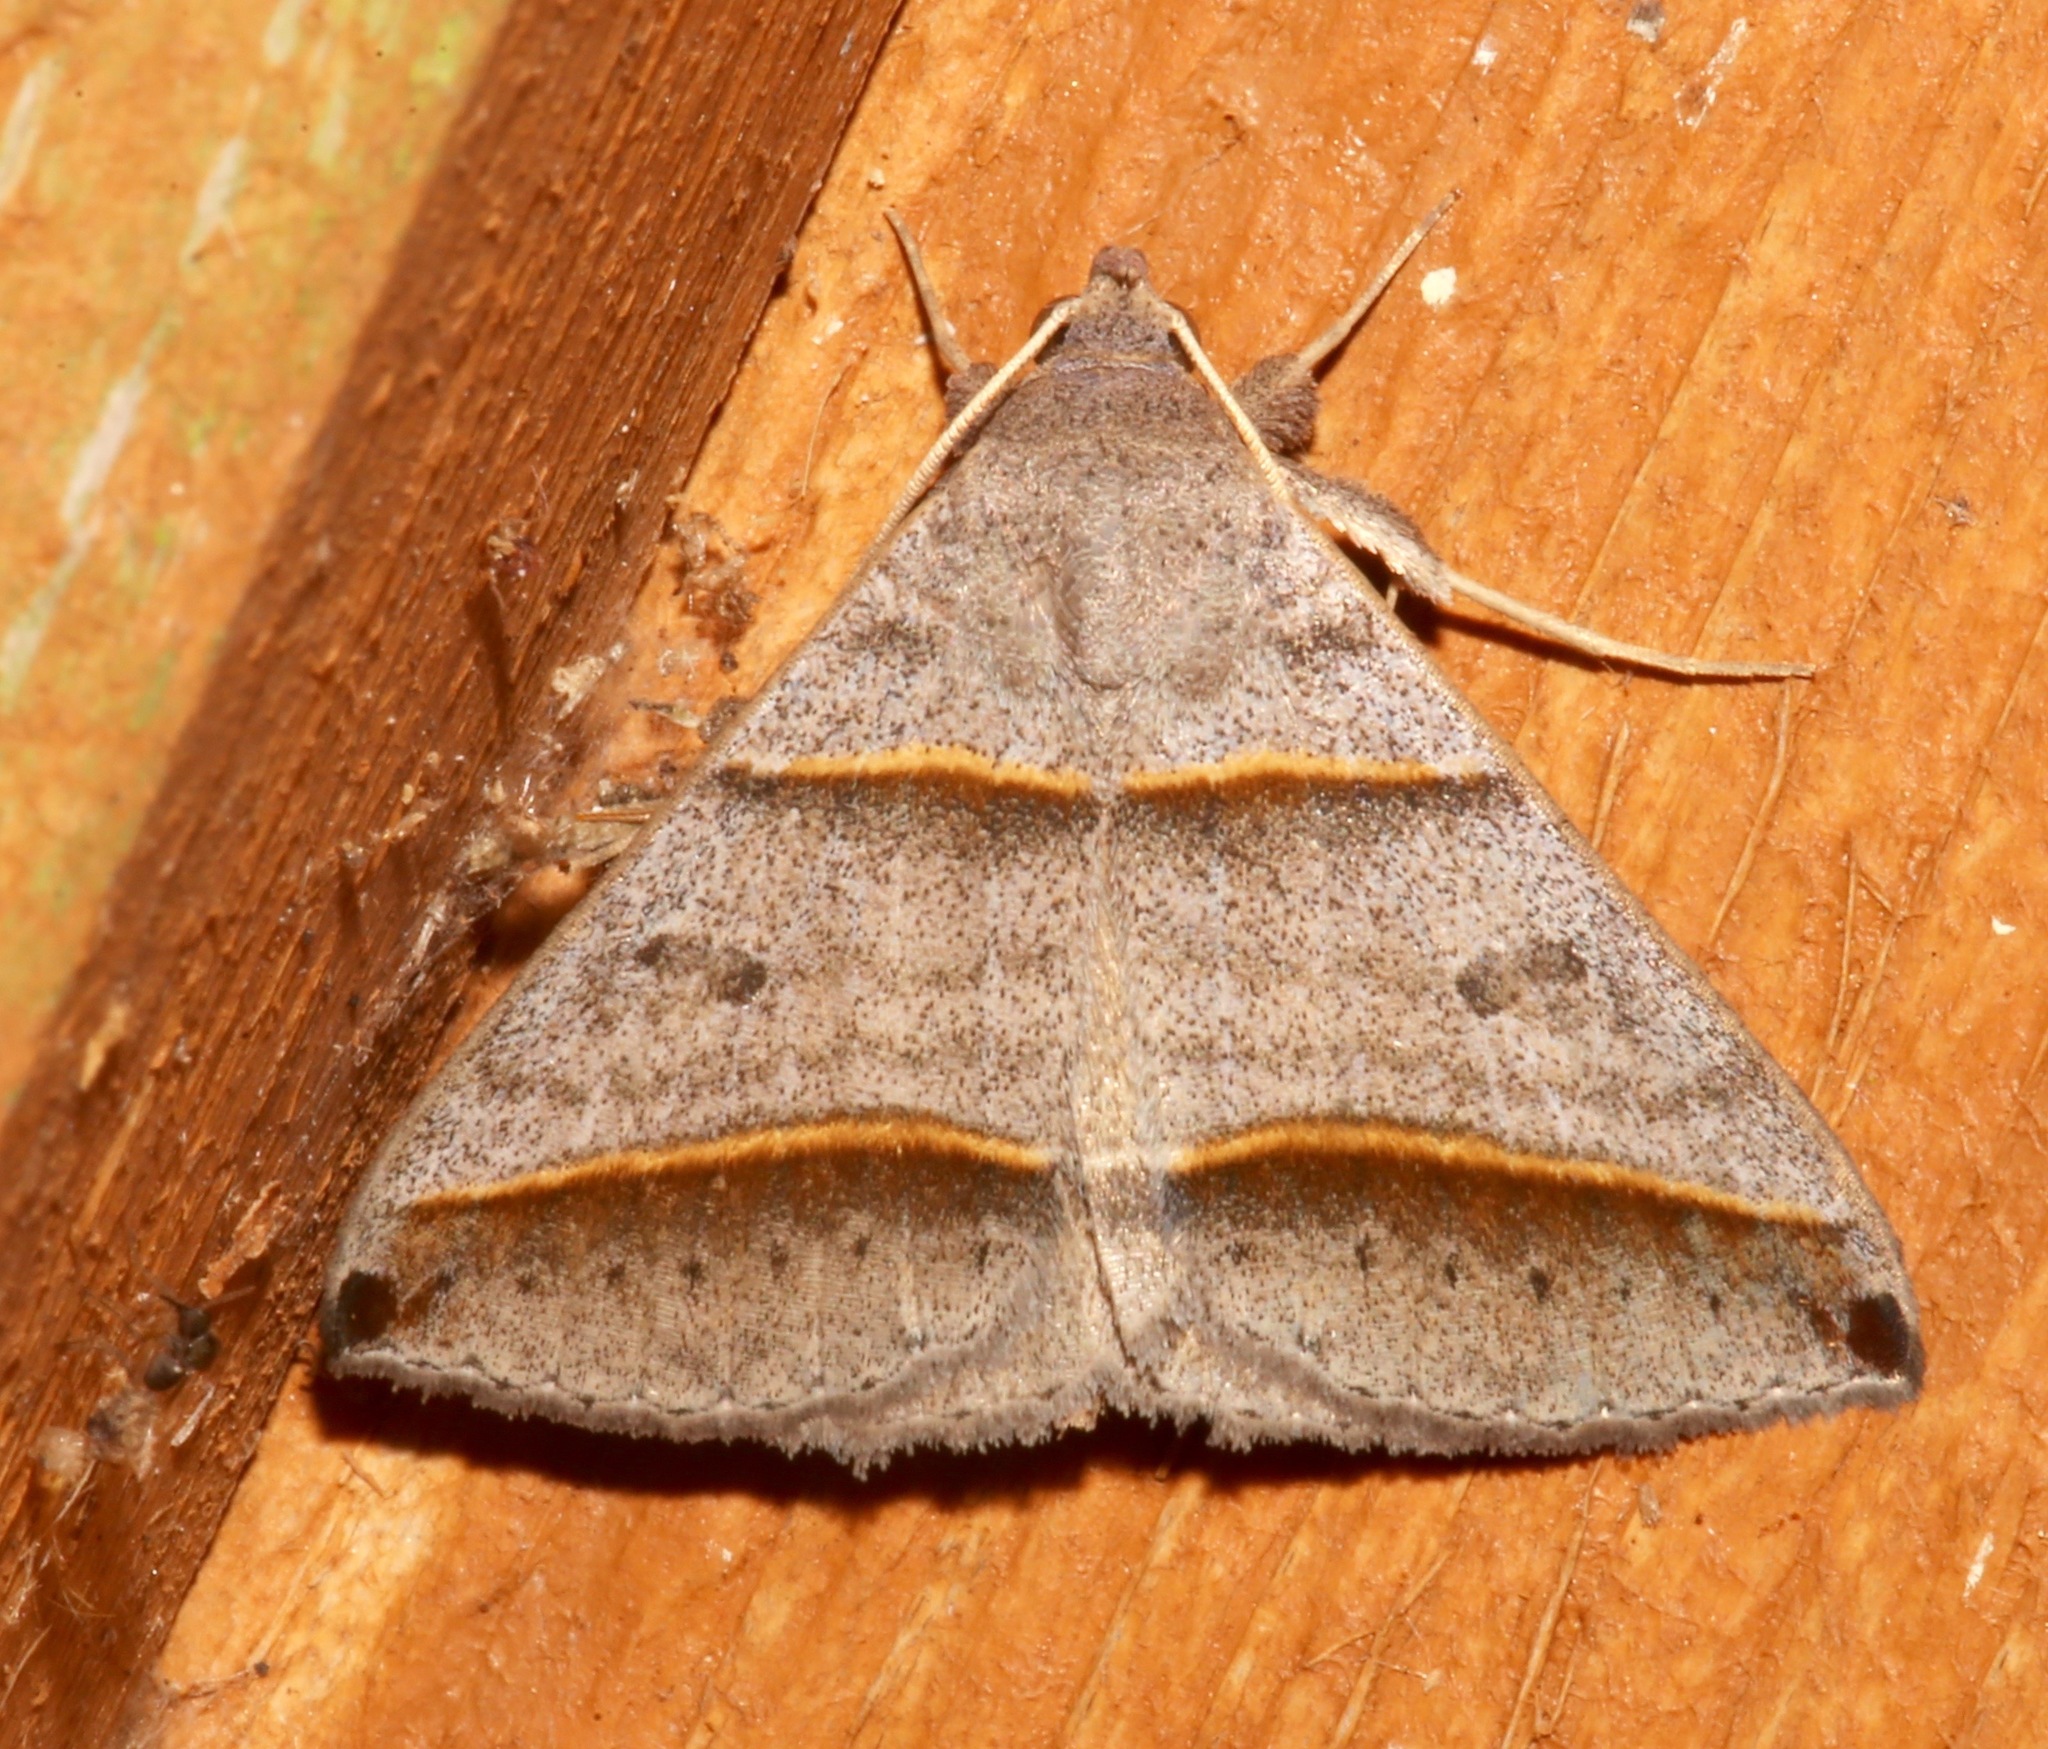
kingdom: Animalia
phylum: Arthropoda
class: Insecta
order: Lepidoptera
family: Erebidae
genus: Ptichodis
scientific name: Ptichodis vinculum
